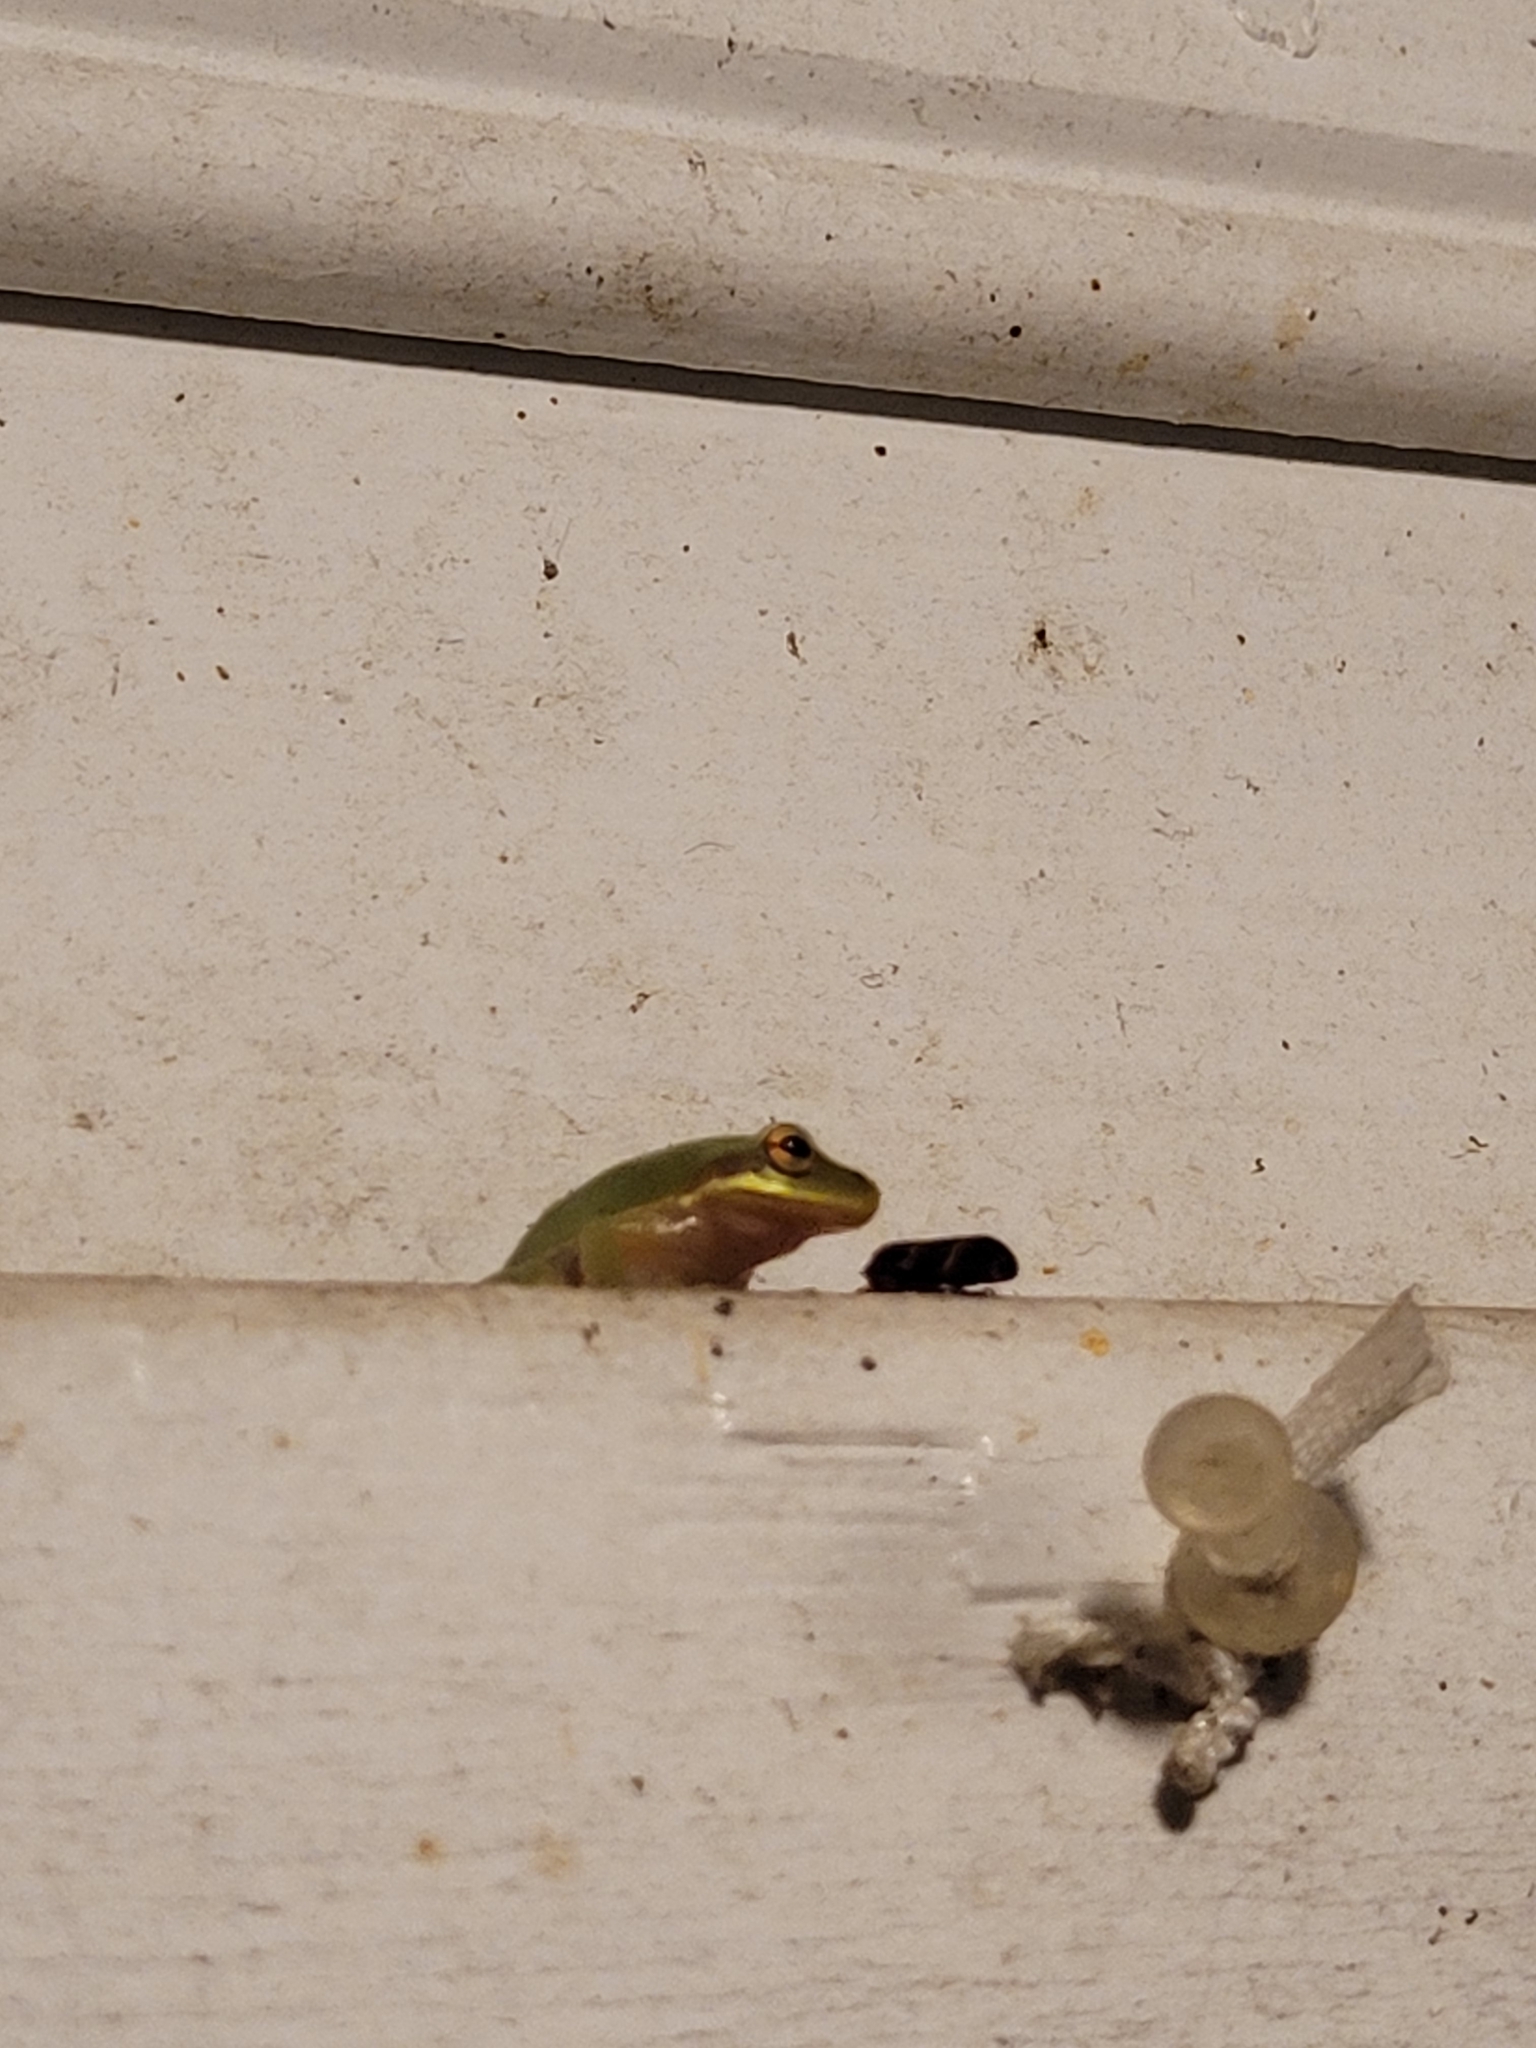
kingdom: Animalia
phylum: Chordata
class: Amphibia
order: Anura
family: Hylidae
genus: Dryophytes
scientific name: Dryophytes squirellus
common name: Squirrel treefrog
